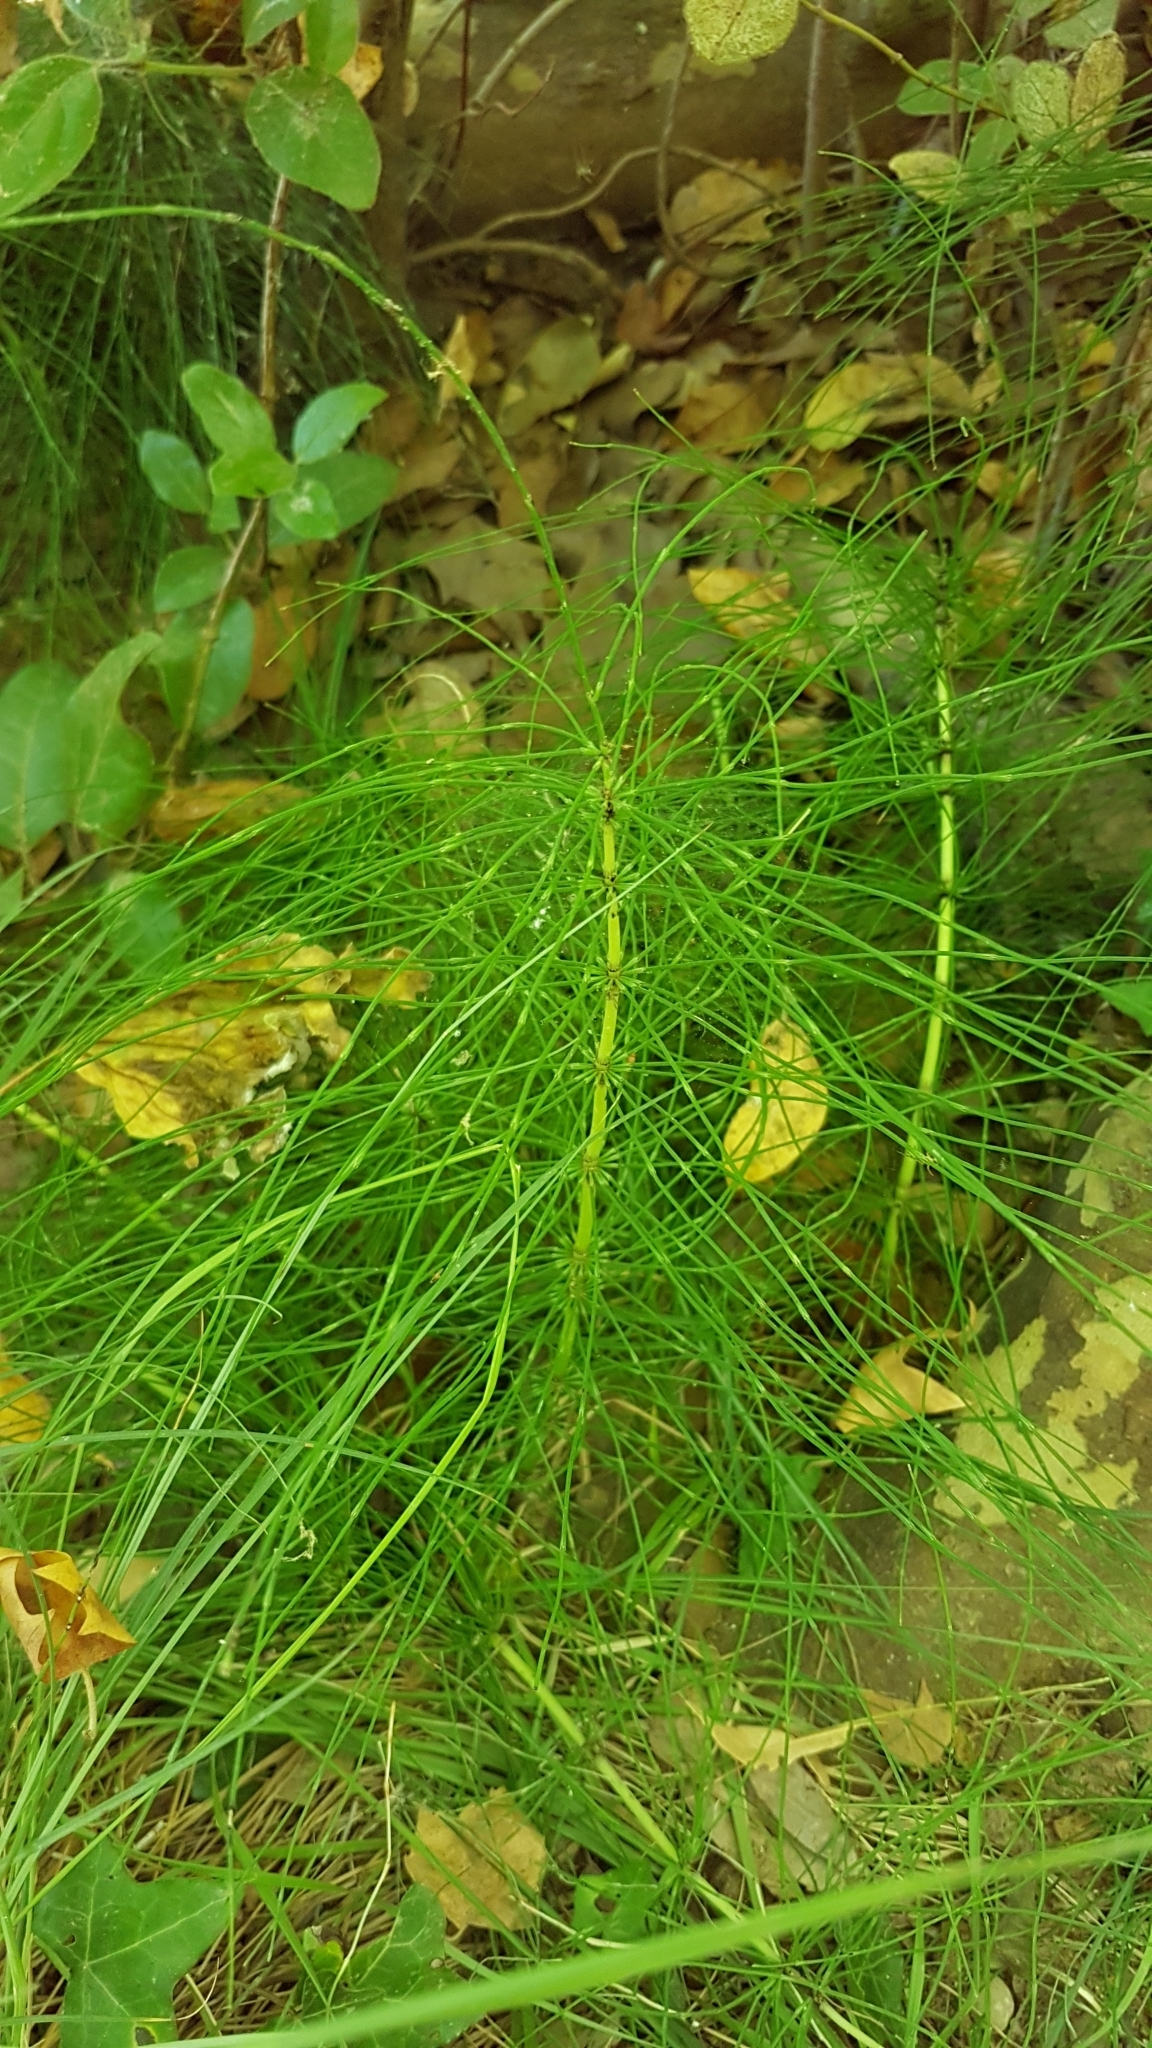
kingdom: Plantae
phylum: Tracheophyta
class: Polypodiopsida
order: Equisetales
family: Equisetaceae
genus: Equisetum
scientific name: Equisetum telmateia
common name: Great horsetail
